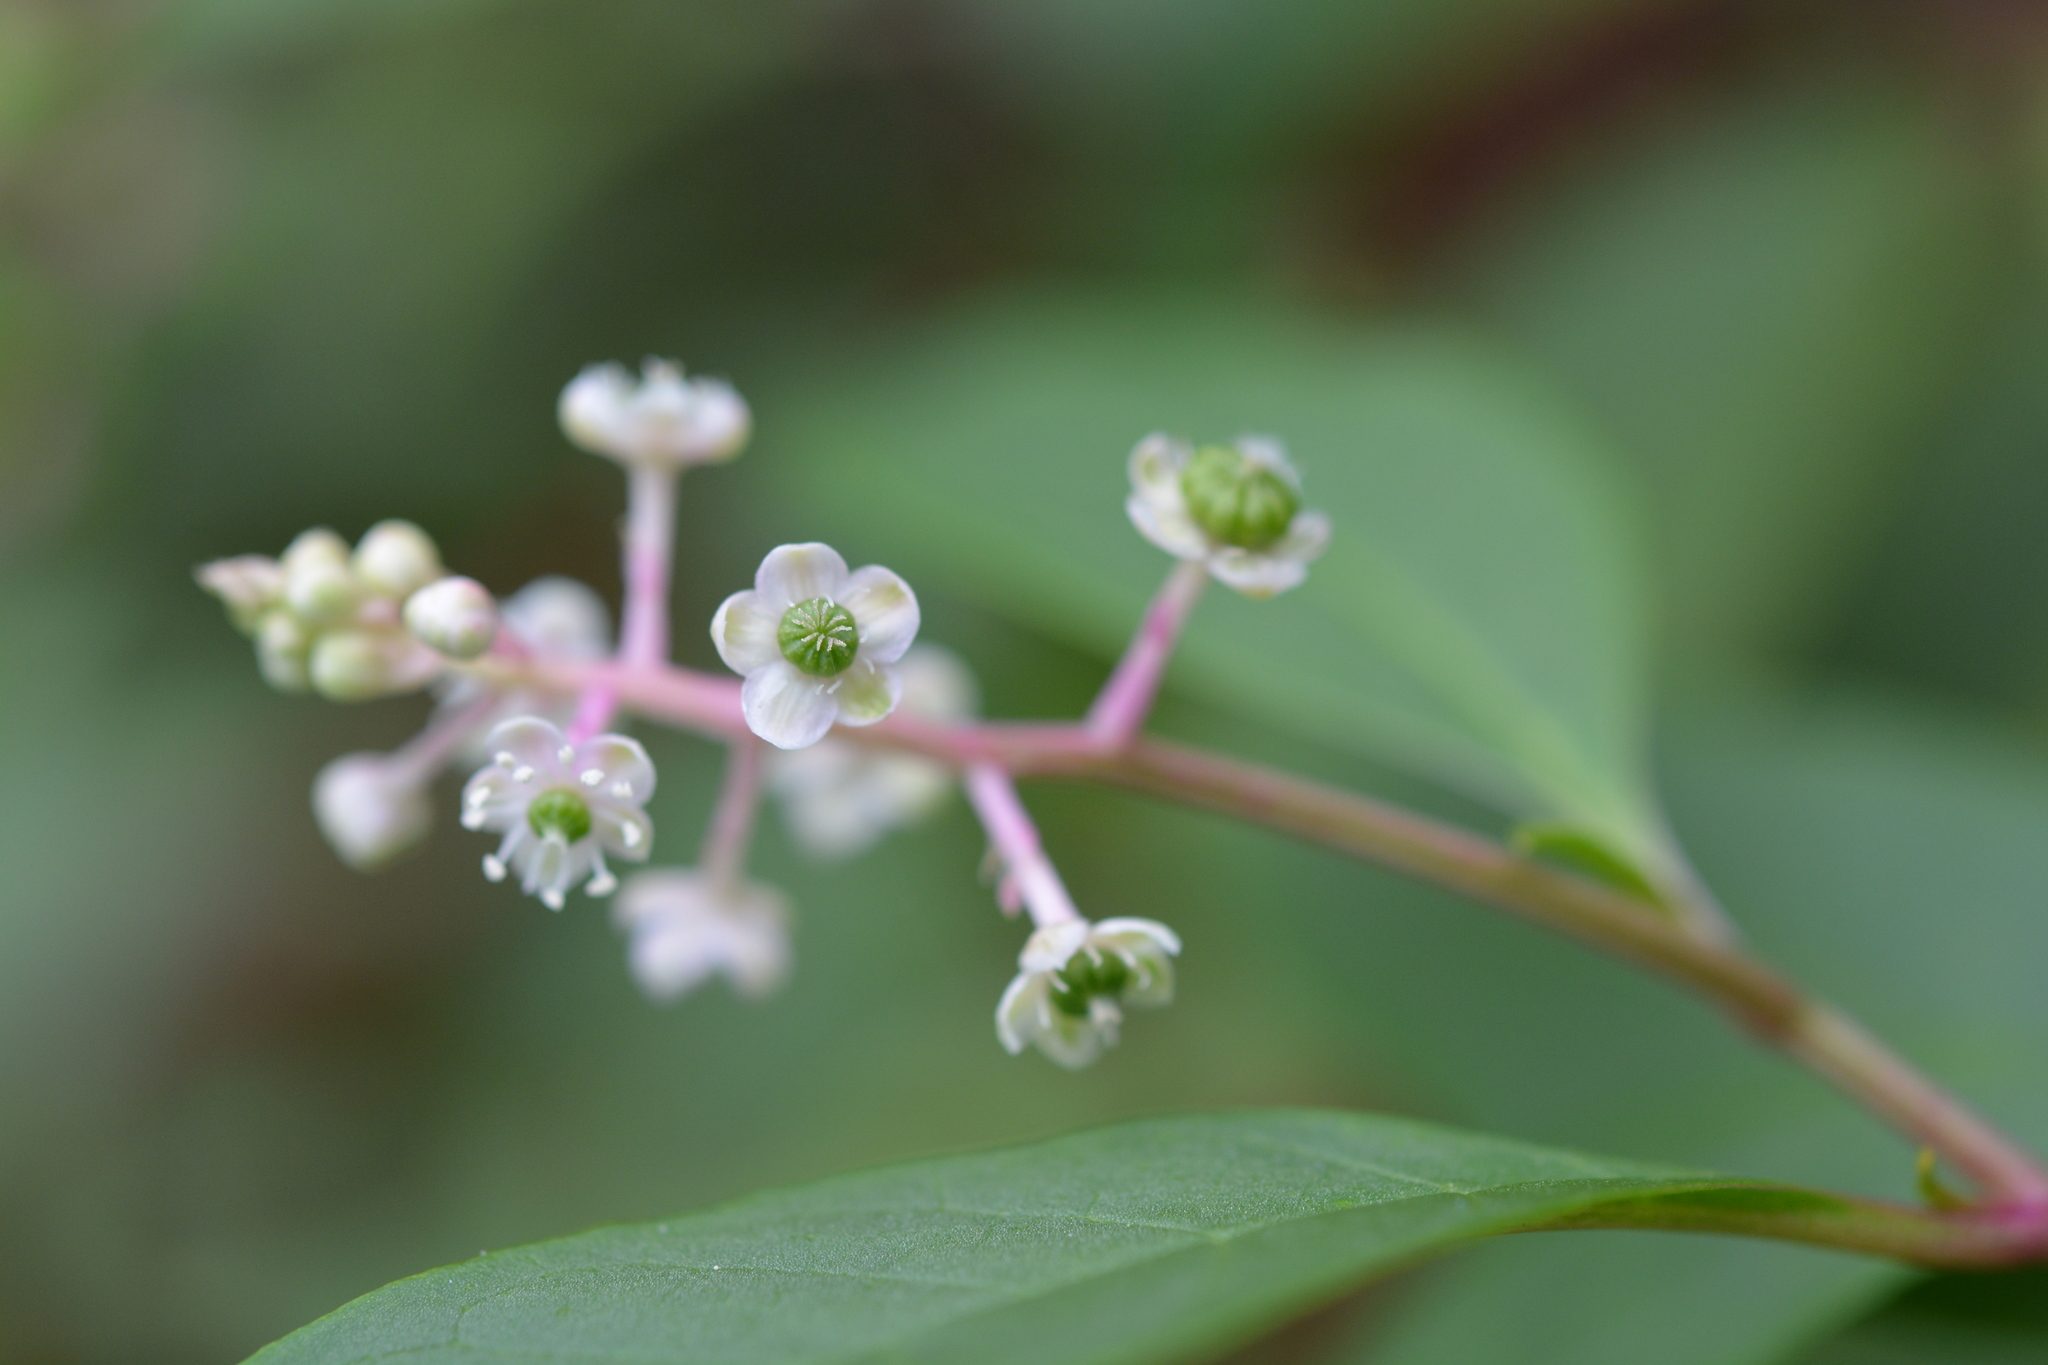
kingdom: Plantae
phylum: Tracheophyta
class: Magnoliopsida
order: Caryophyllales
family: Phytolaccaceae
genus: Phytolacca
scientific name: Phytolacca americana
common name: American pokeweed
